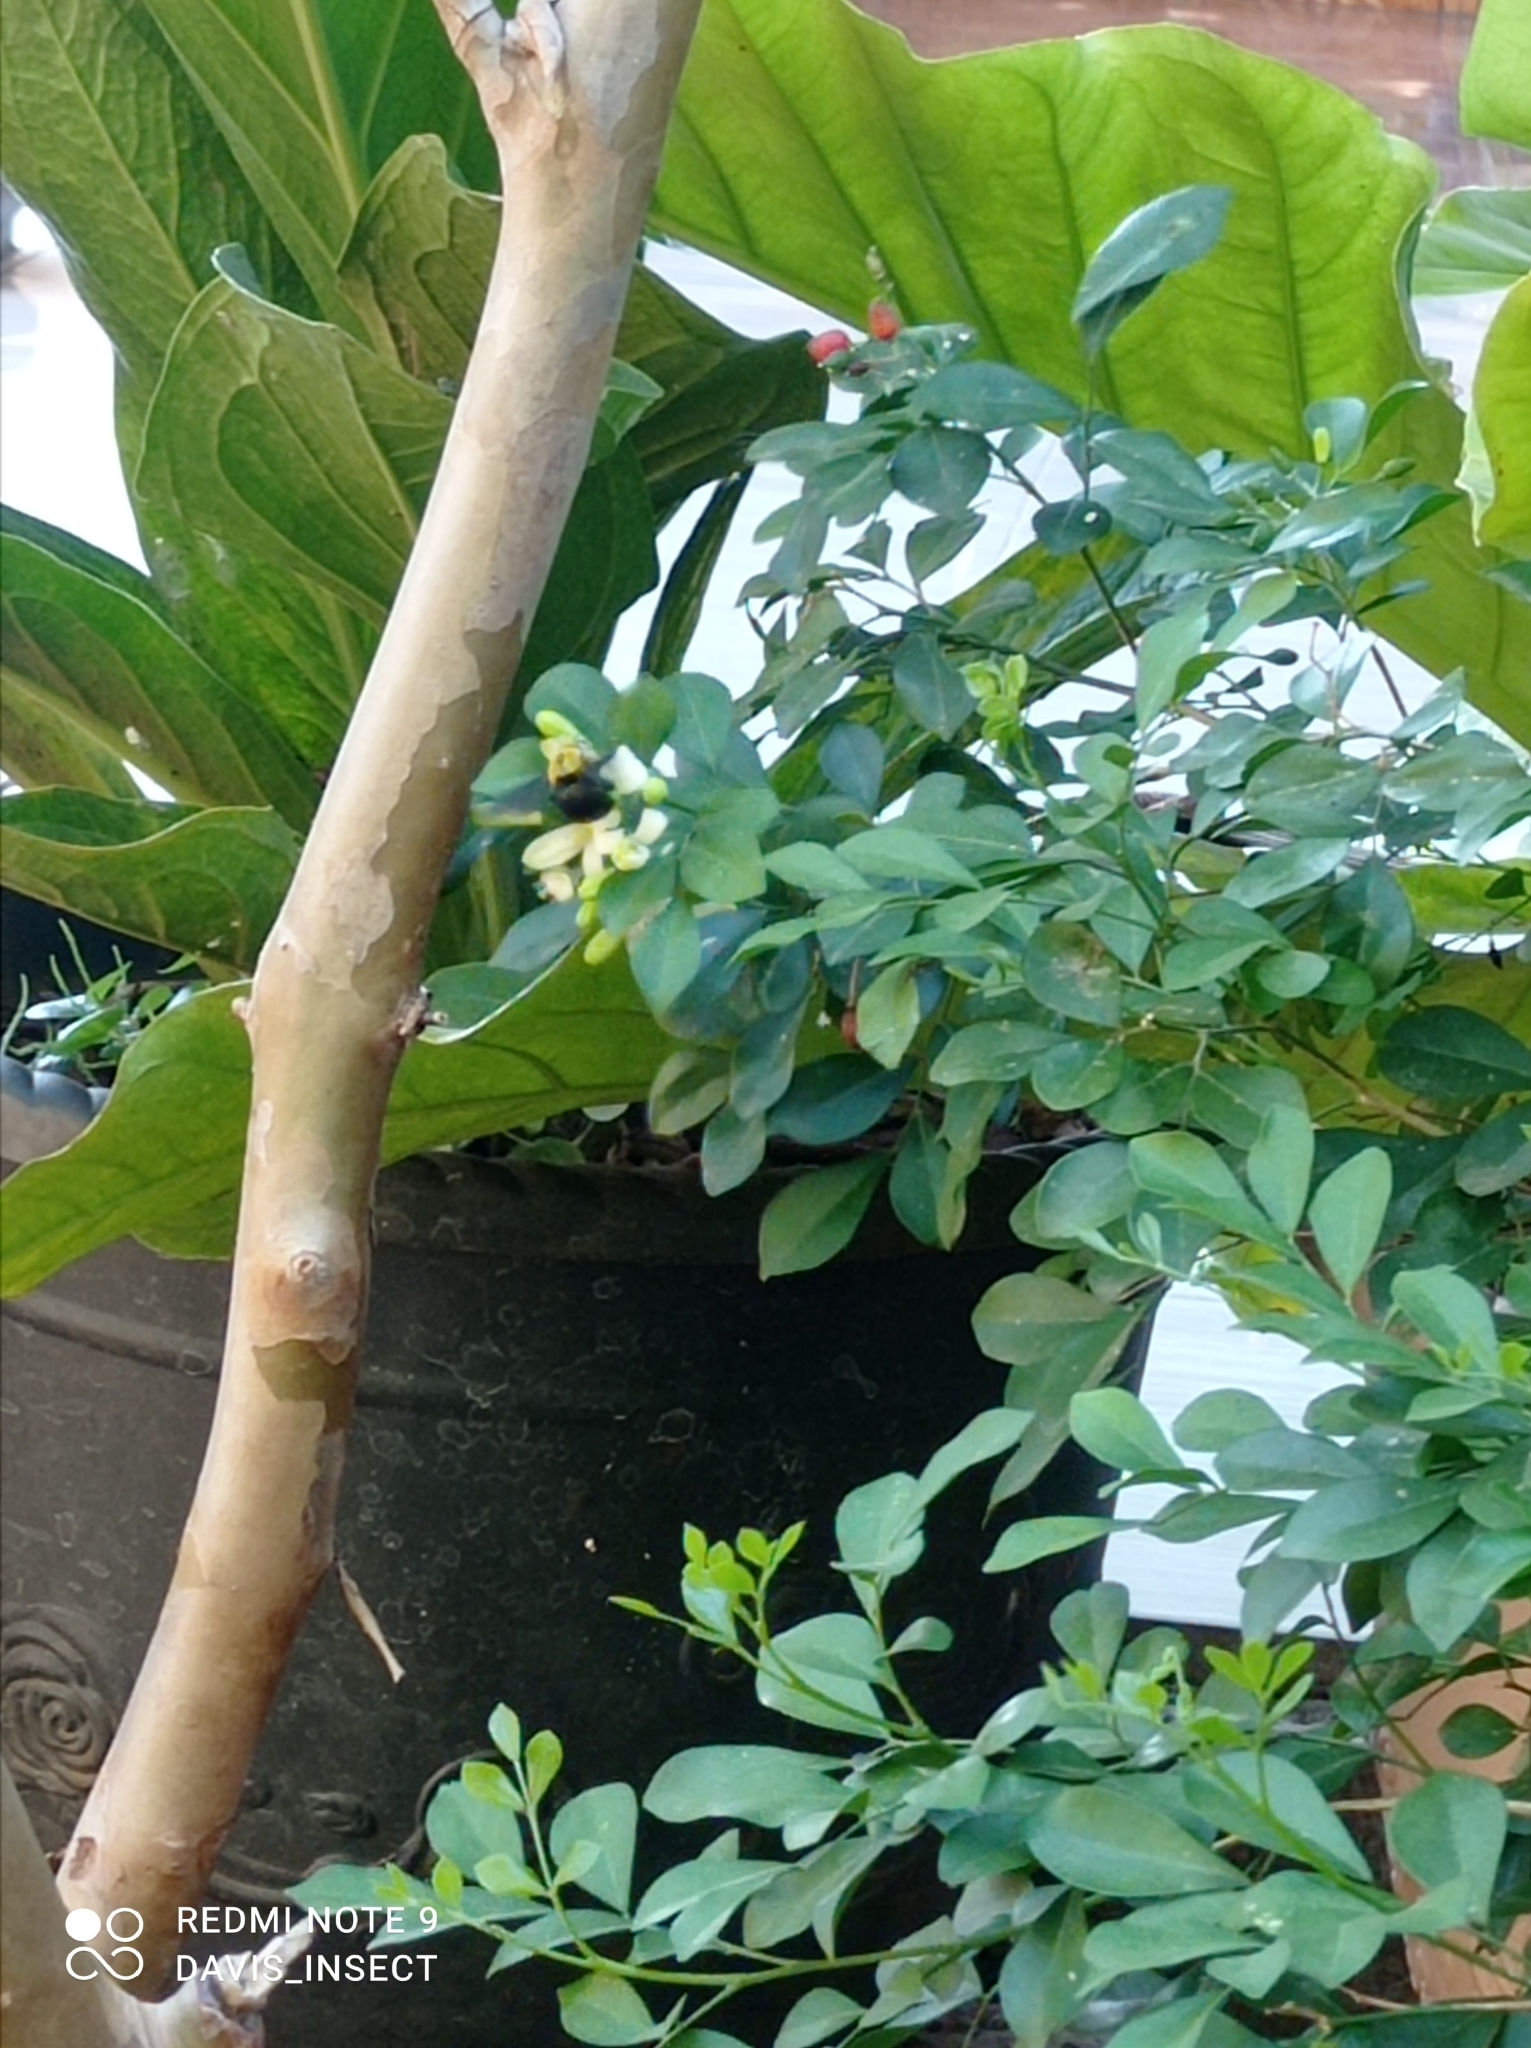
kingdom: Animalia
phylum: Arthropoda
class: Insecta
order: Hymenoptera
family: Apidae
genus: Xylocopa
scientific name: Xylocopa ocularis
